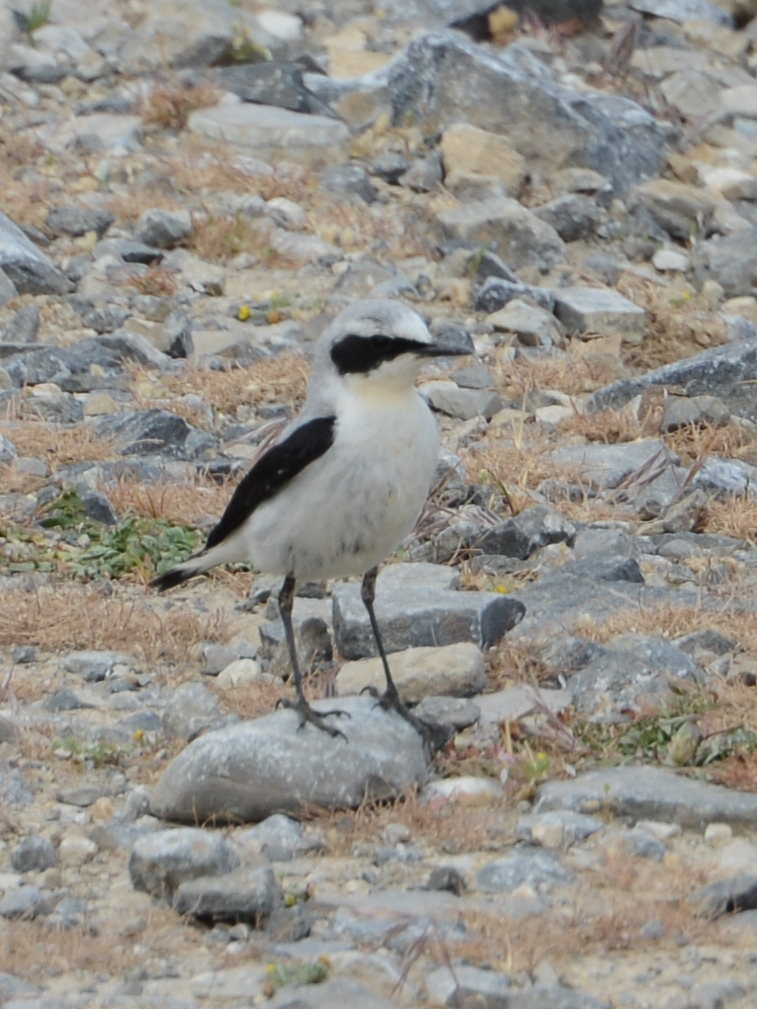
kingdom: Animalia
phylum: Chordata
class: Aves
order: Passeriformes
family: Muscicapidae
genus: Oenanthe
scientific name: Oenanthe oenanthe
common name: Northern wheatear
